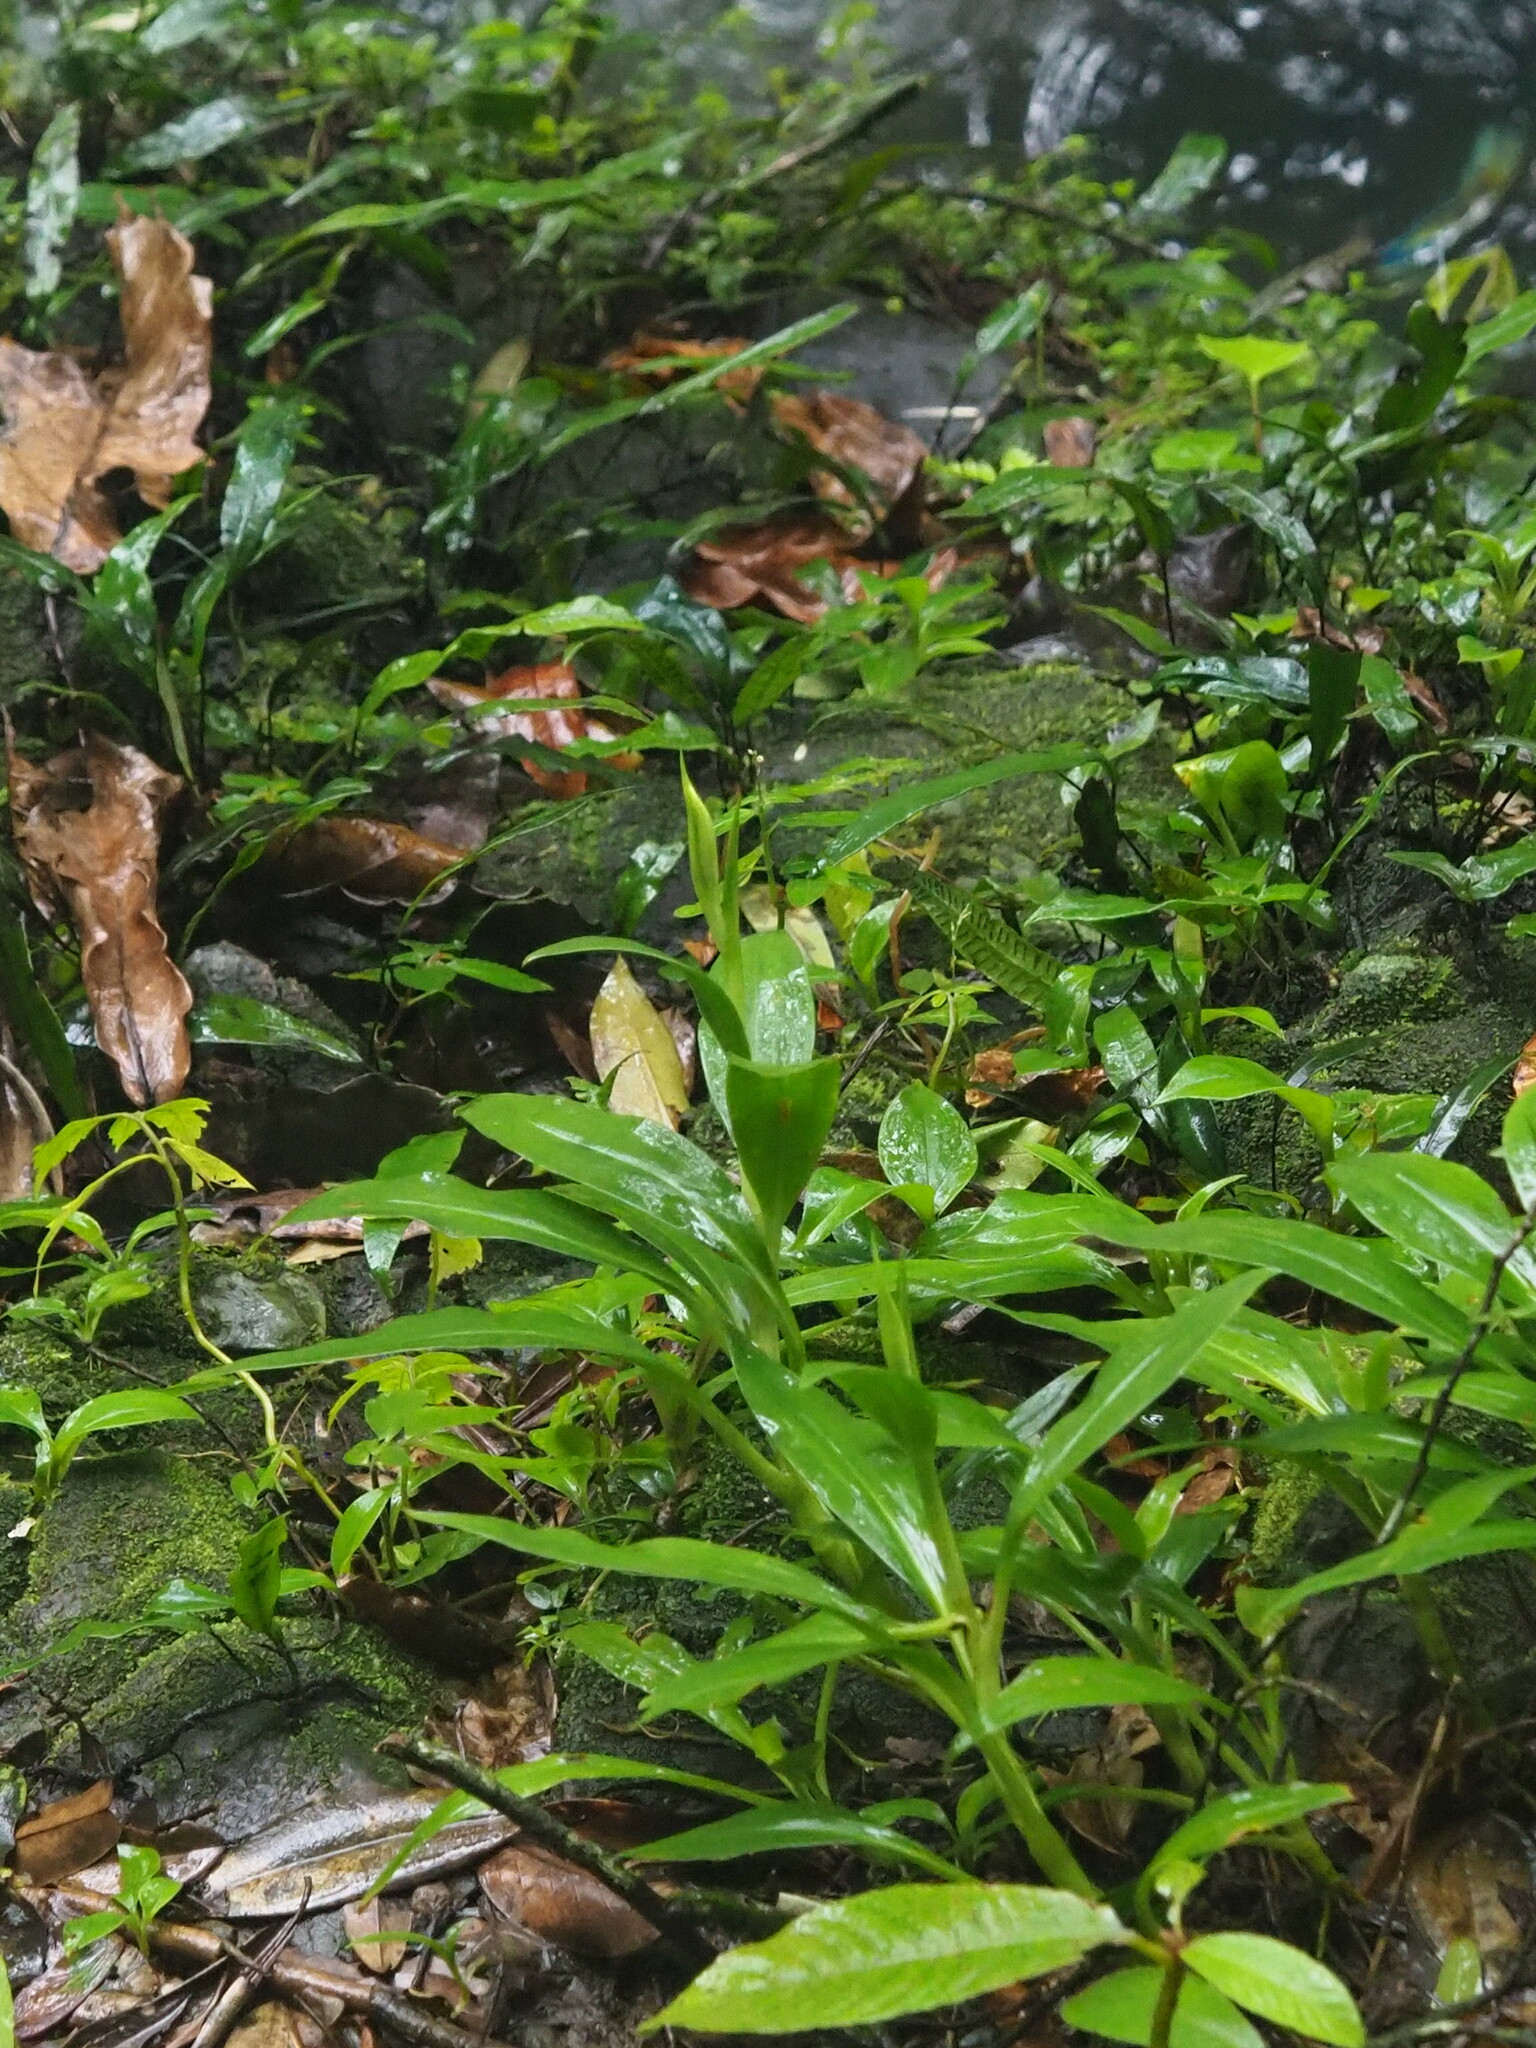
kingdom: Plantae
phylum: Tracheophyta
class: Liliopsida
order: Asparagales
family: Orchidaceae
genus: Goodyera
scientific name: Goodyera procera
